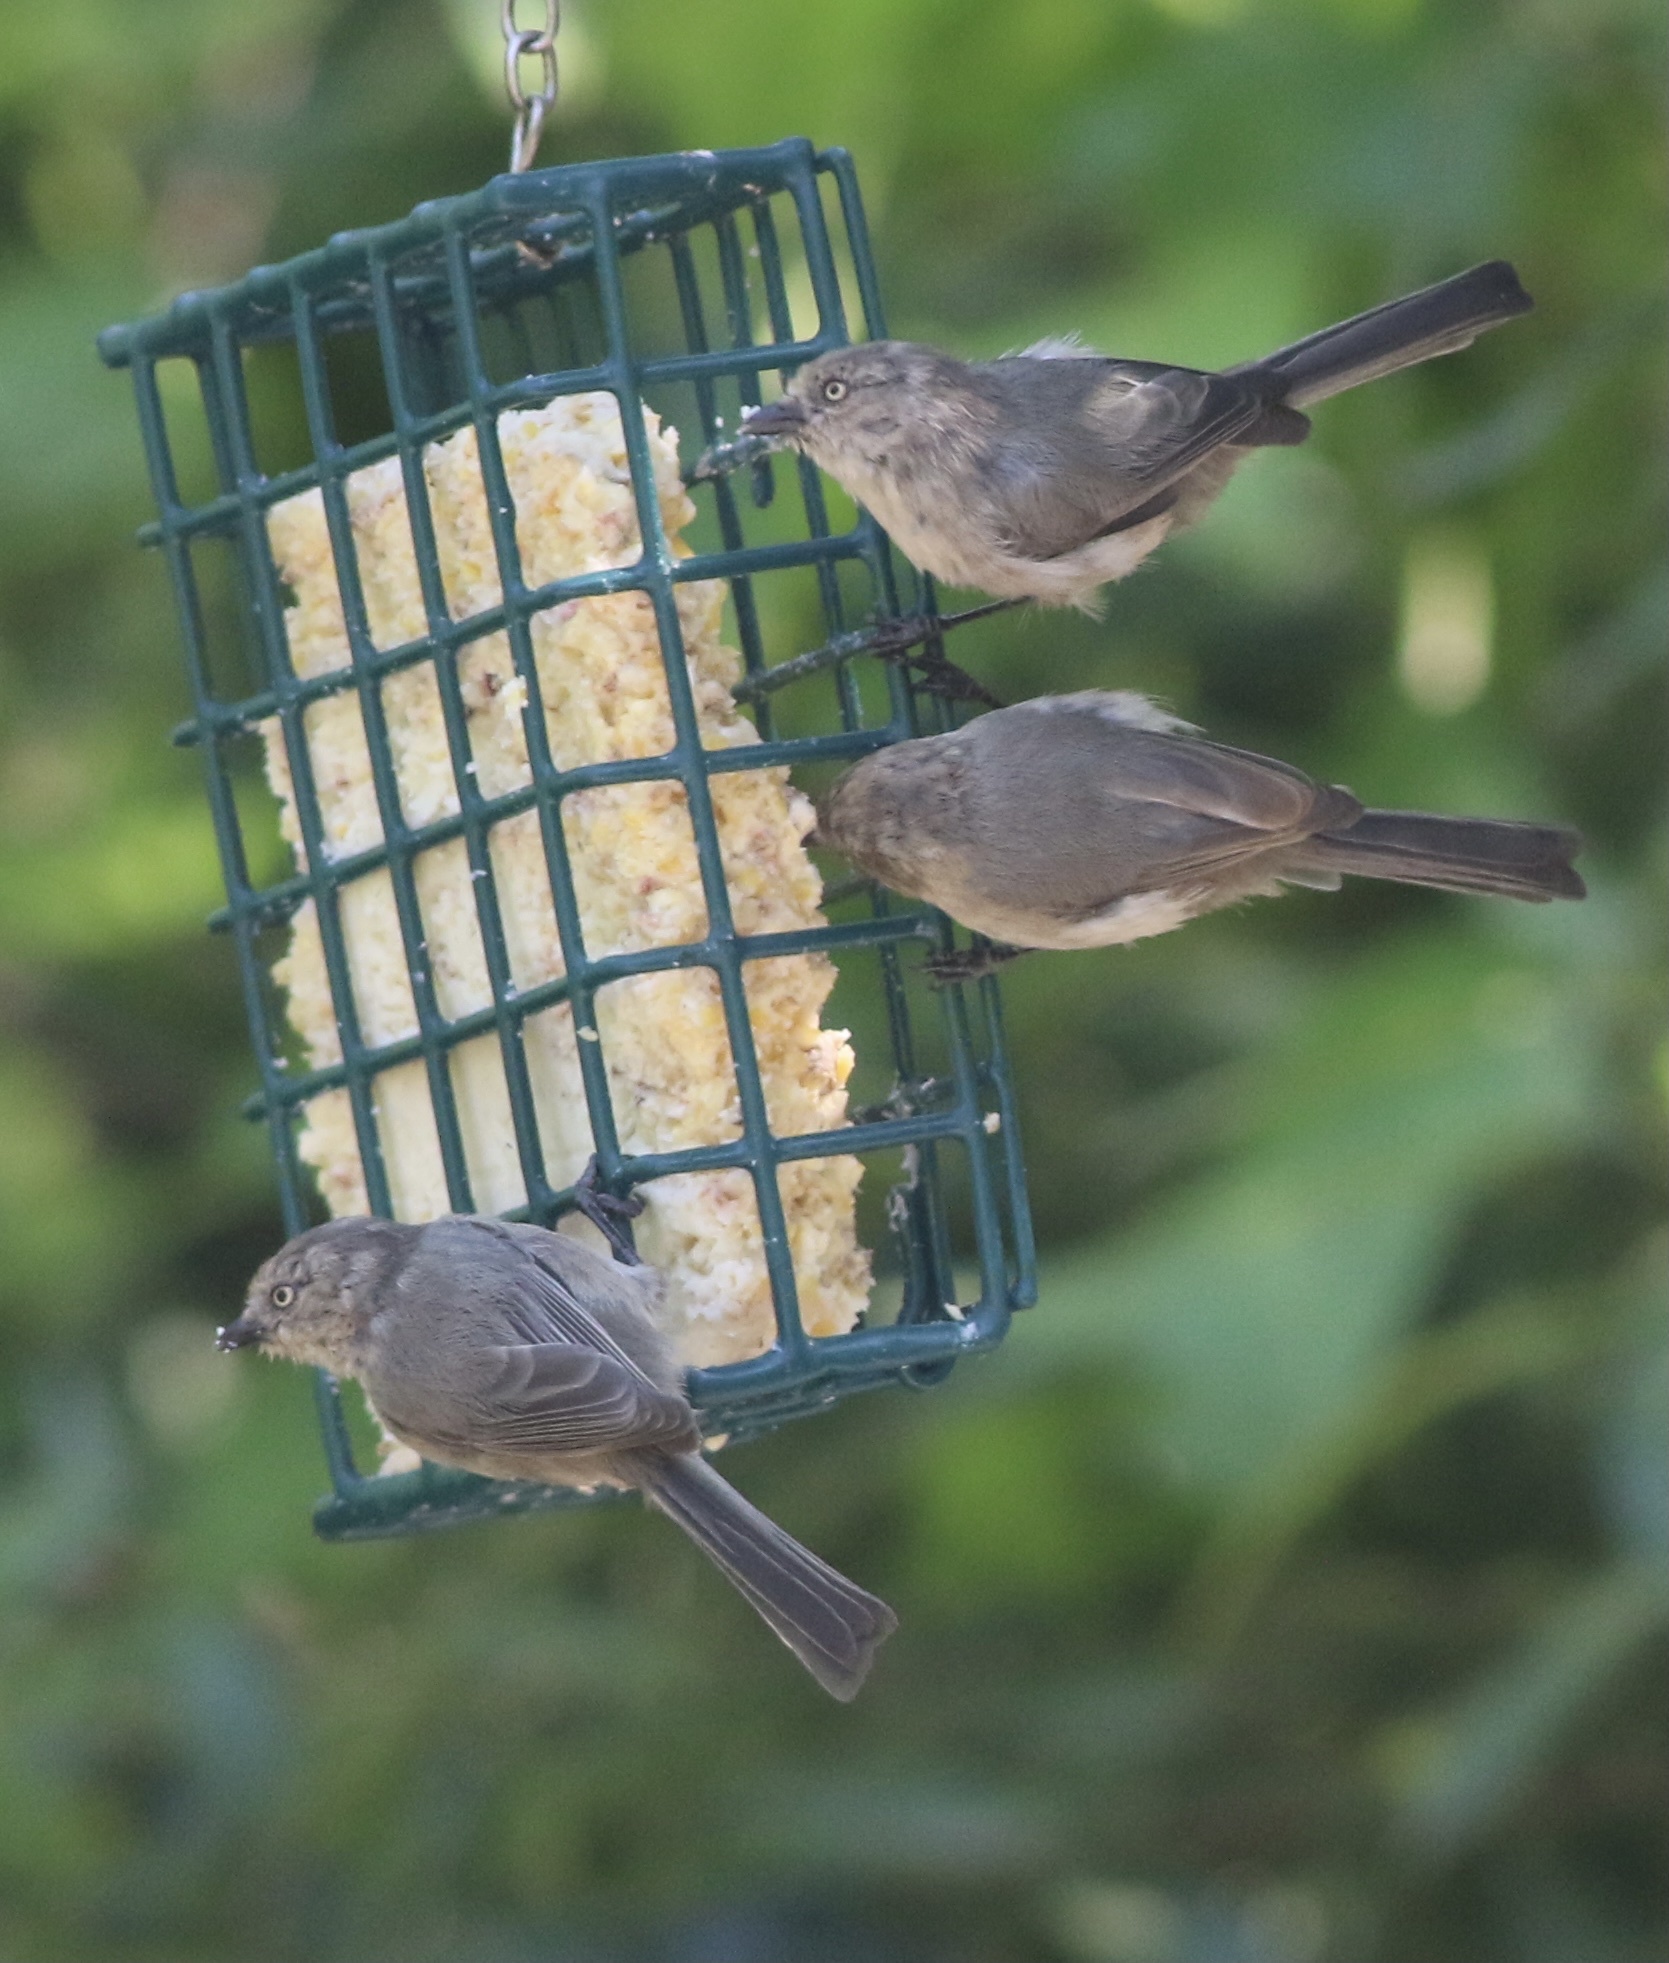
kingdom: Animalia
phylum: Chordata
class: Aves
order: Passeriformes
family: Aegithalidae
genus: Psaltriparus
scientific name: Psaltriparus minimus
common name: American bushtit
